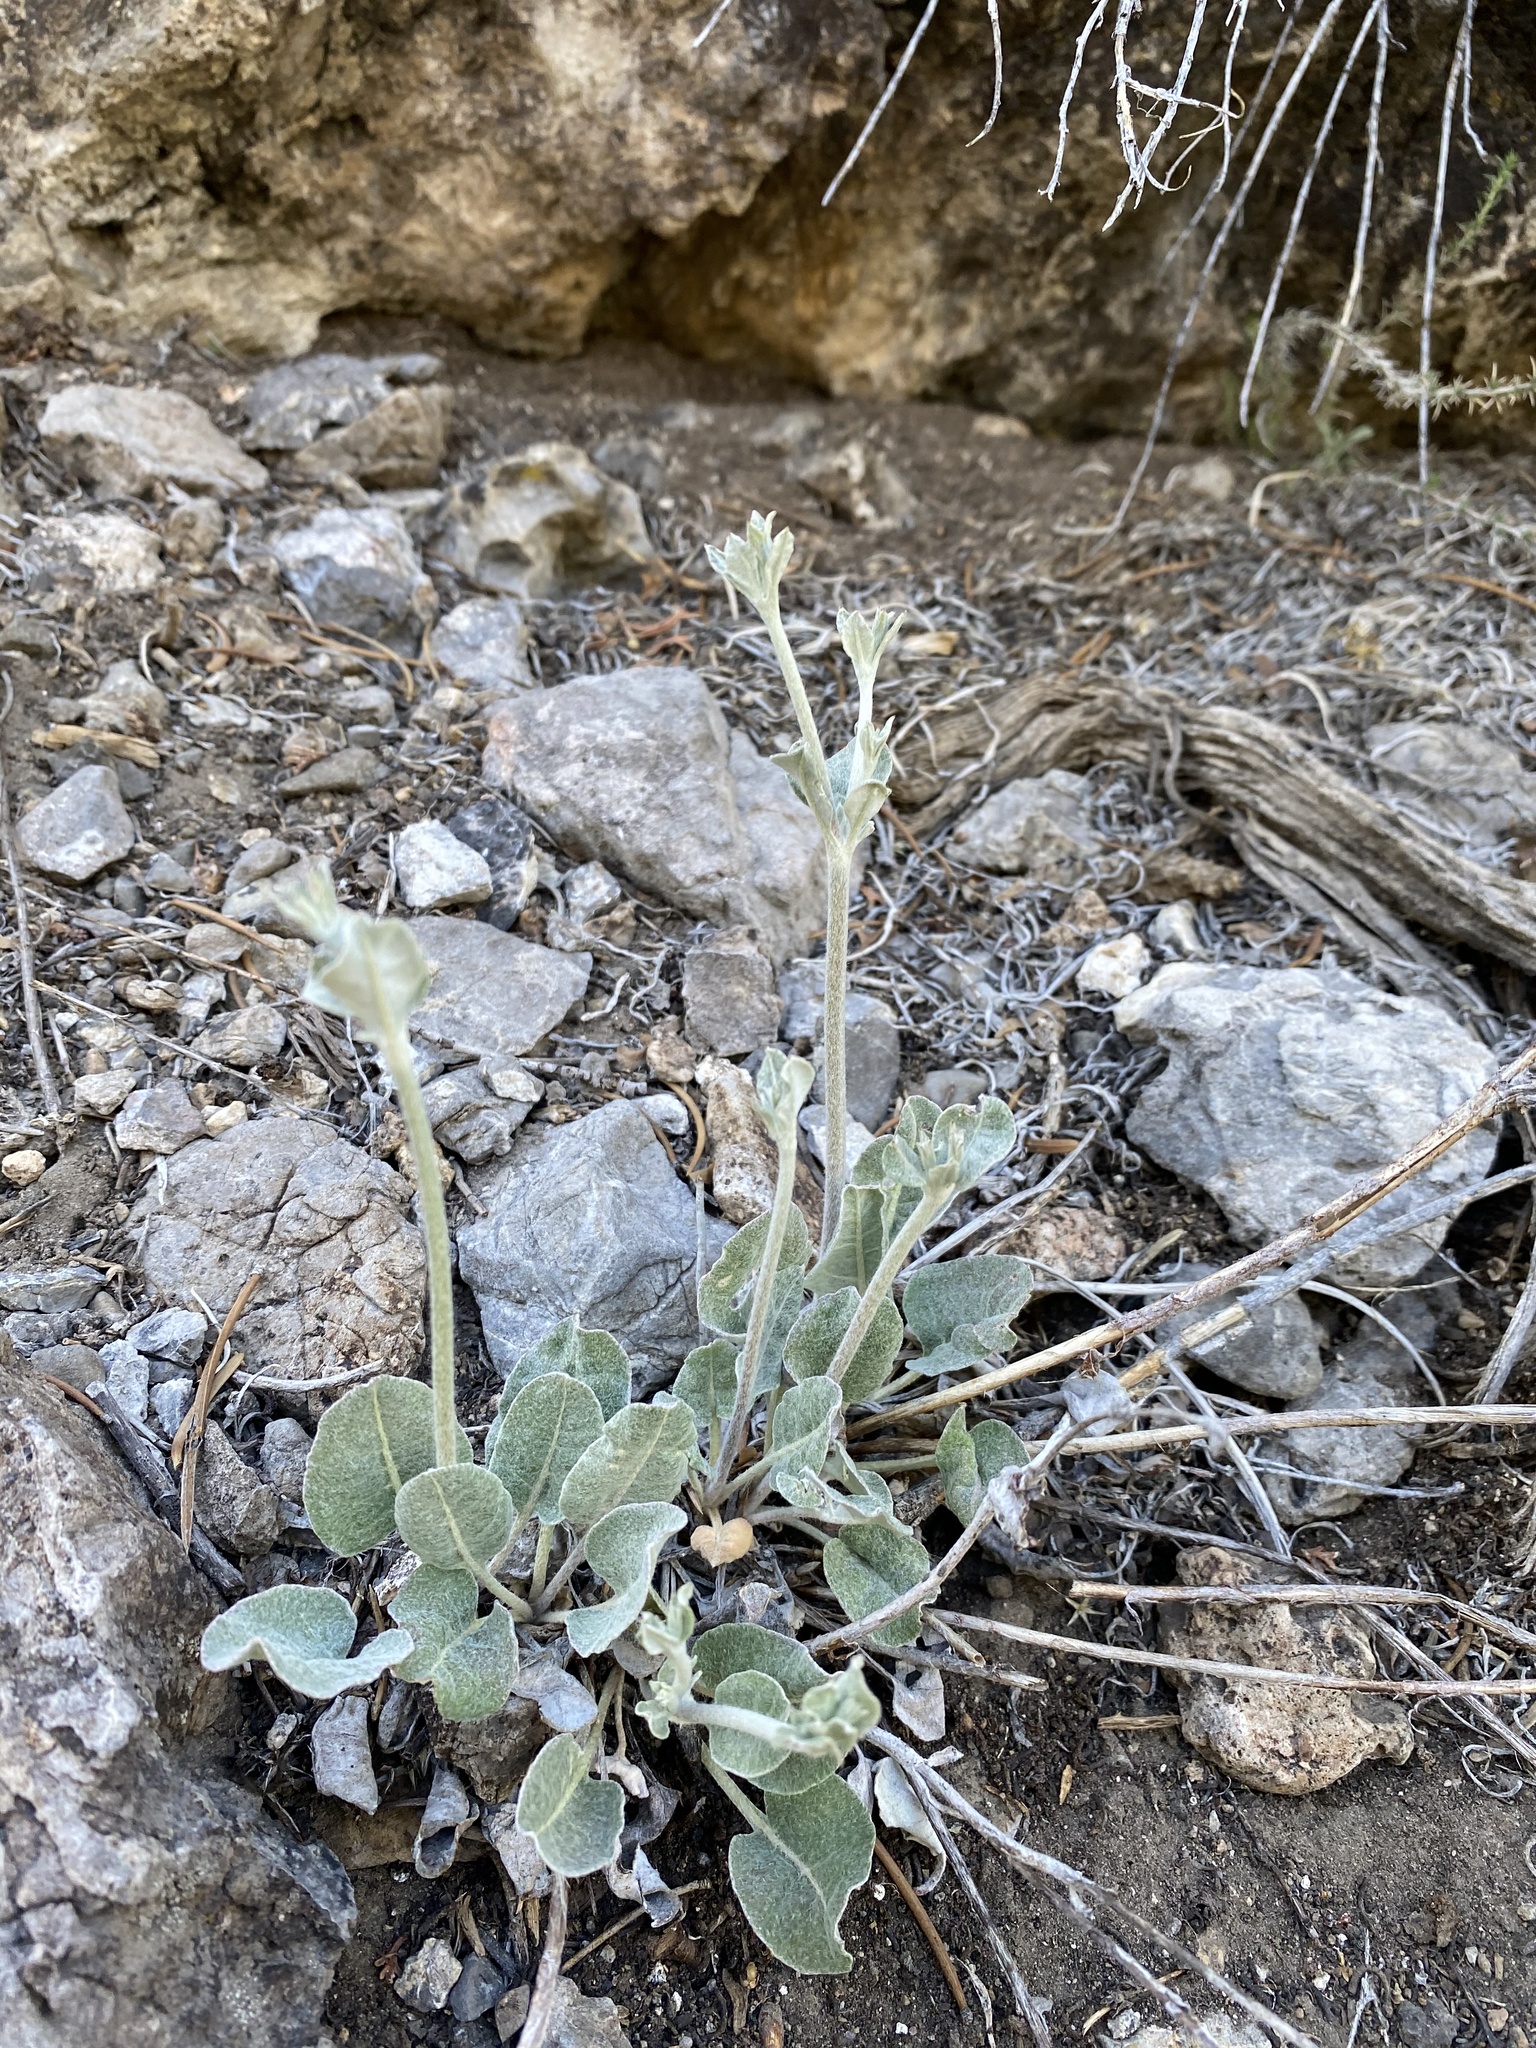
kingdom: Plantae
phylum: Tracheophyta
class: Magnoliopsida
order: Caryophyllales
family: Polygonaceae
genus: Eriogonum
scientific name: Eriogonum racemosum
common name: Redroot wild buckwheat
